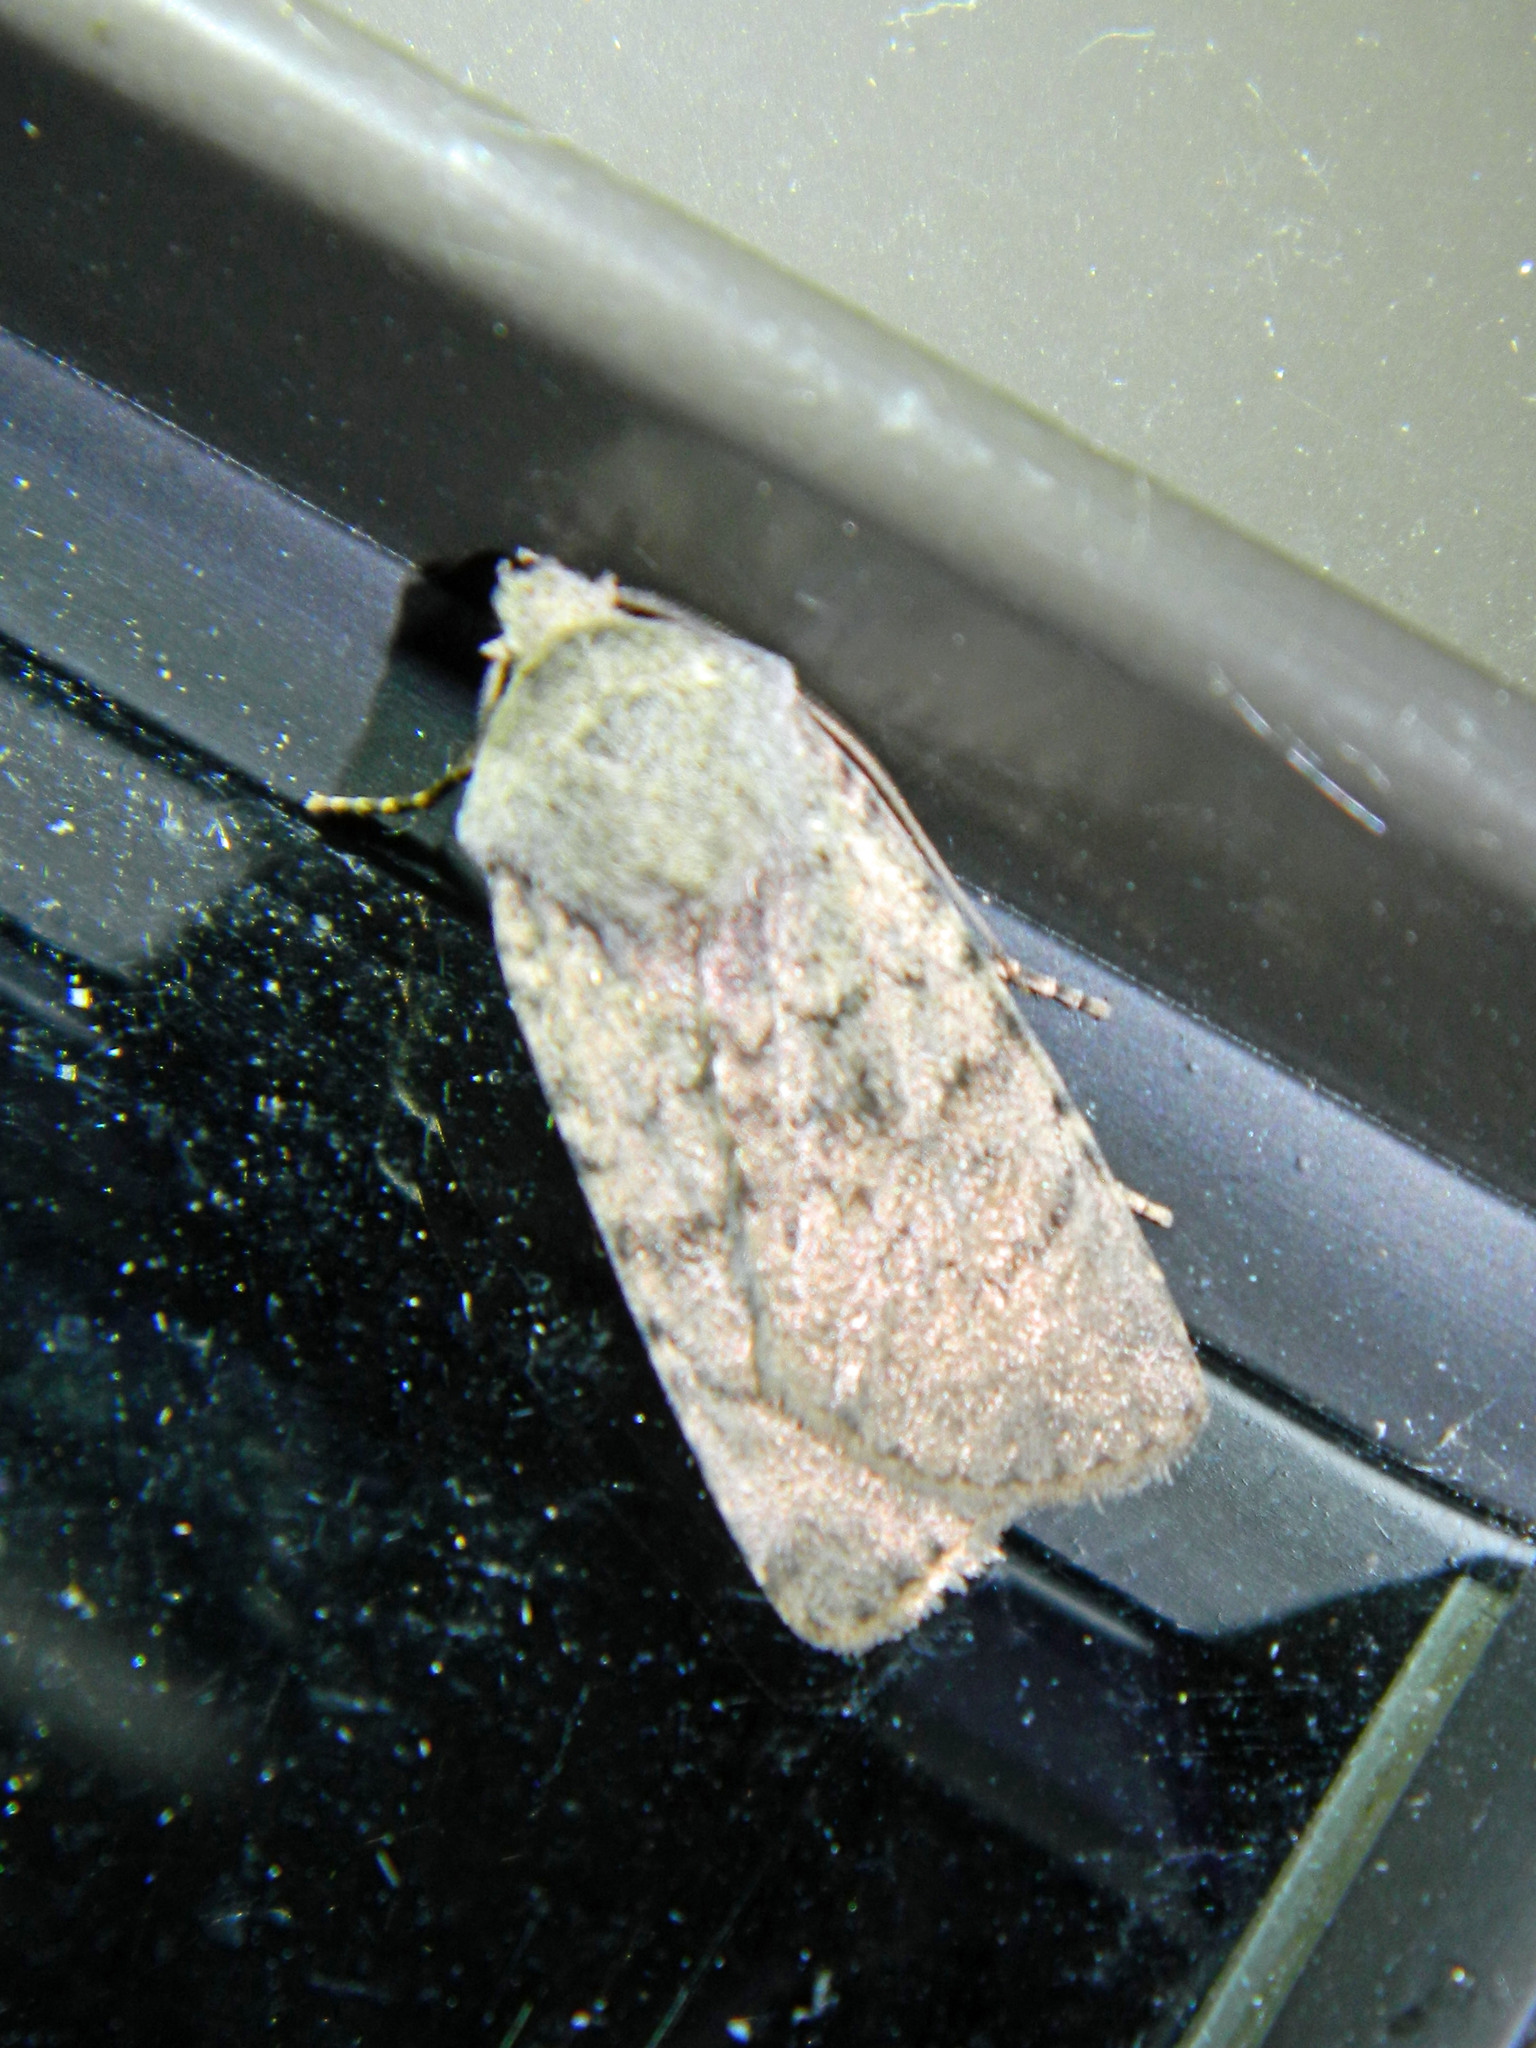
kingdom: Animalia
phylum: Arthropoda
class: Insecta
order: Lepidoptera
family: Noctuidae
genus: Caradrina
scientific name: Caradrina multifera
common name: Speckled rustic
